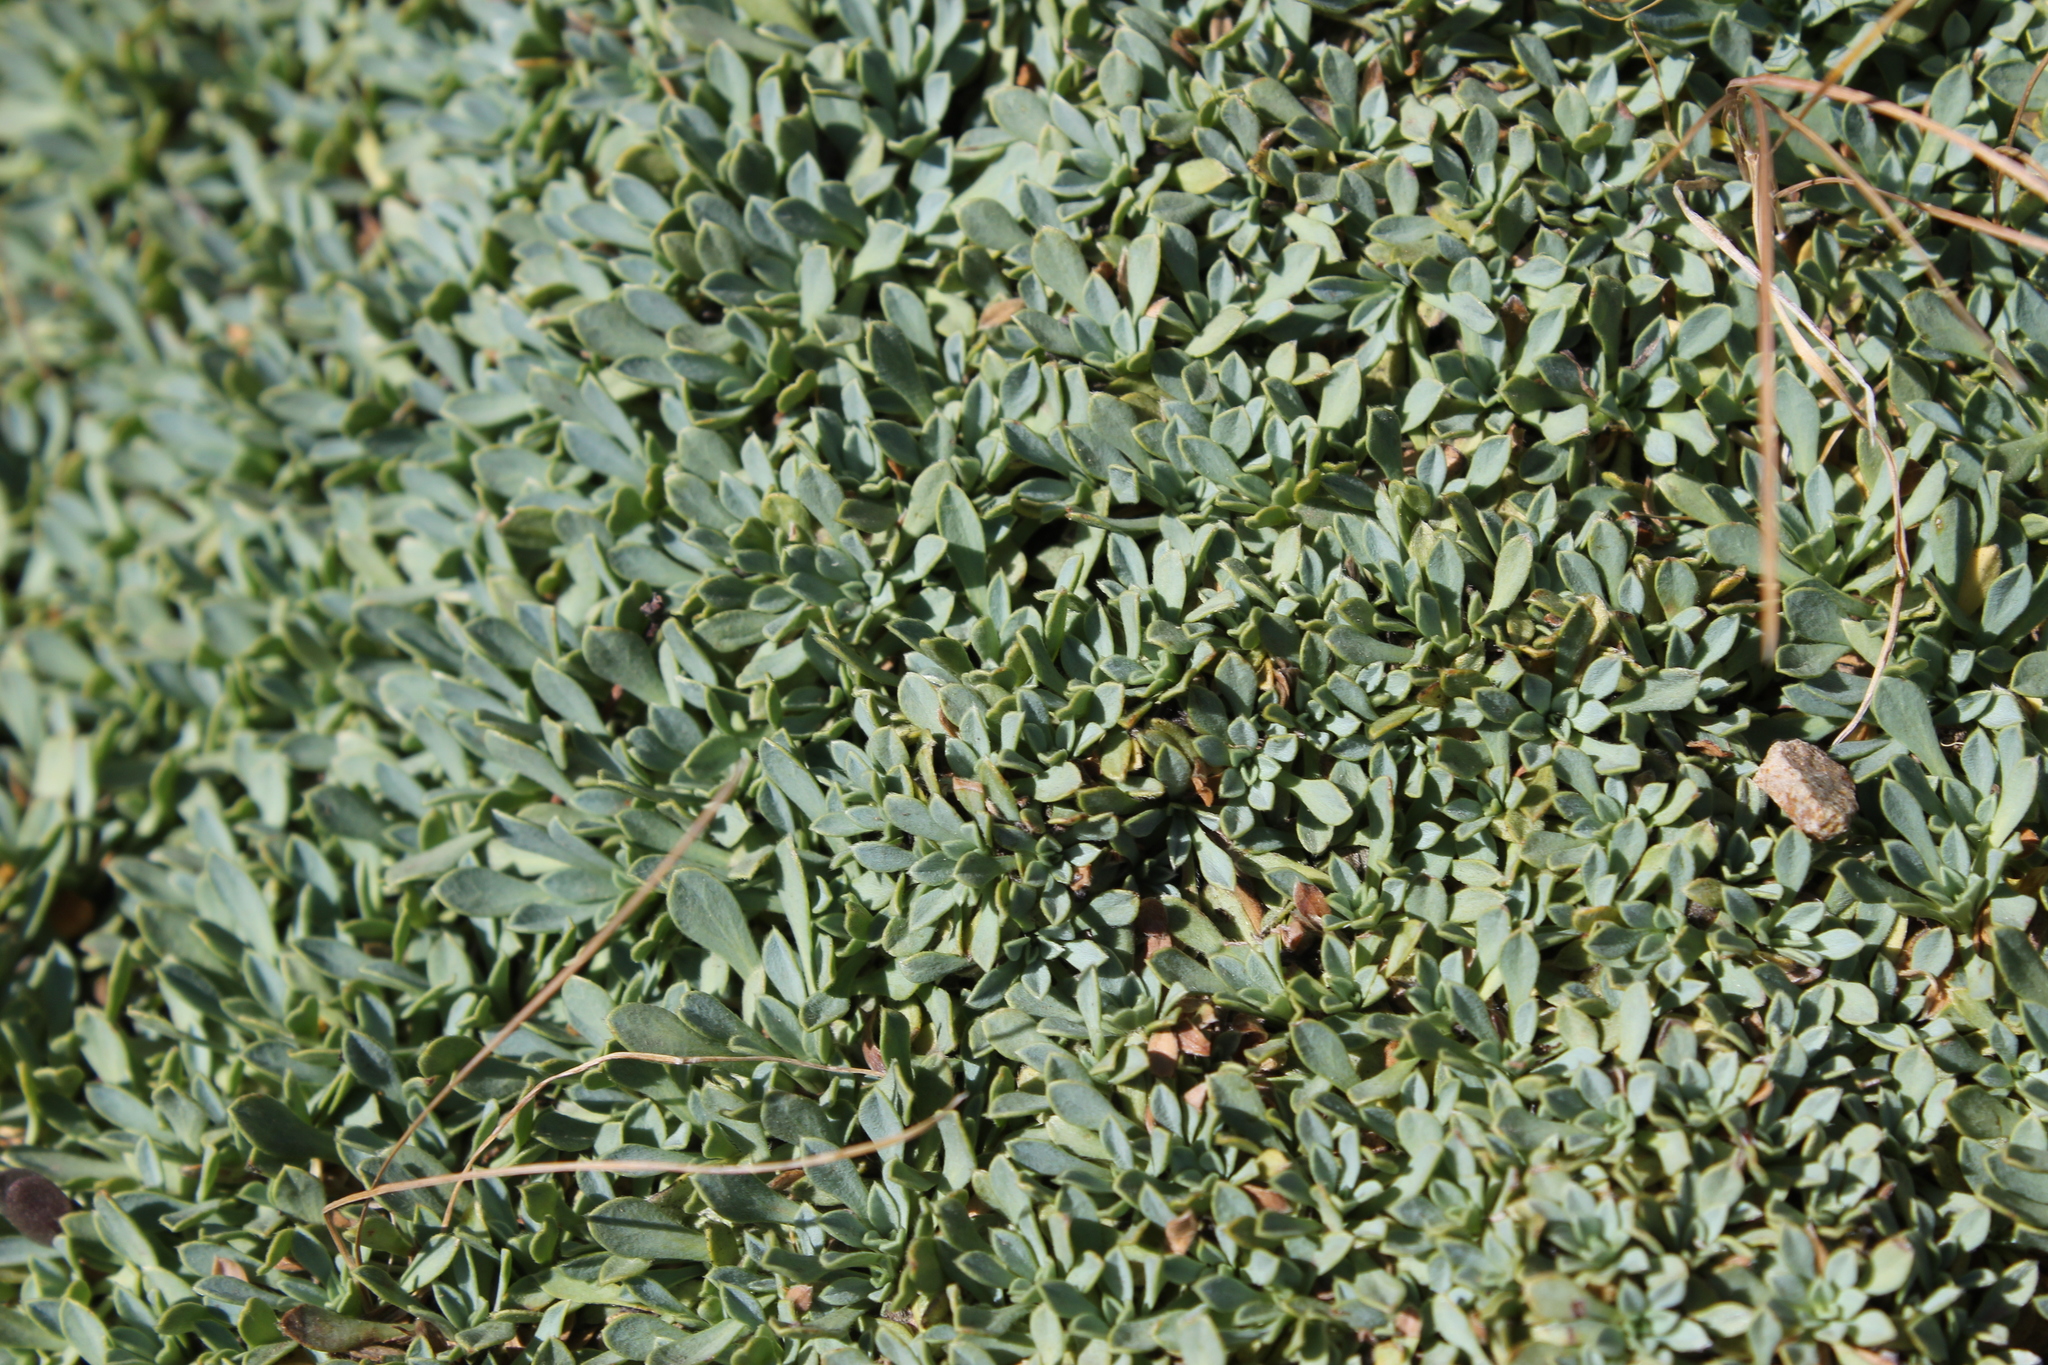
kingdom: Plantae
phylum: Tracheophyta
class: Magnoliopsida
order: Rosales
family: Rosaceae
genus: Petrophytum
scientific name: Petrophytum caespitosum
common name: Mat rockspirea
